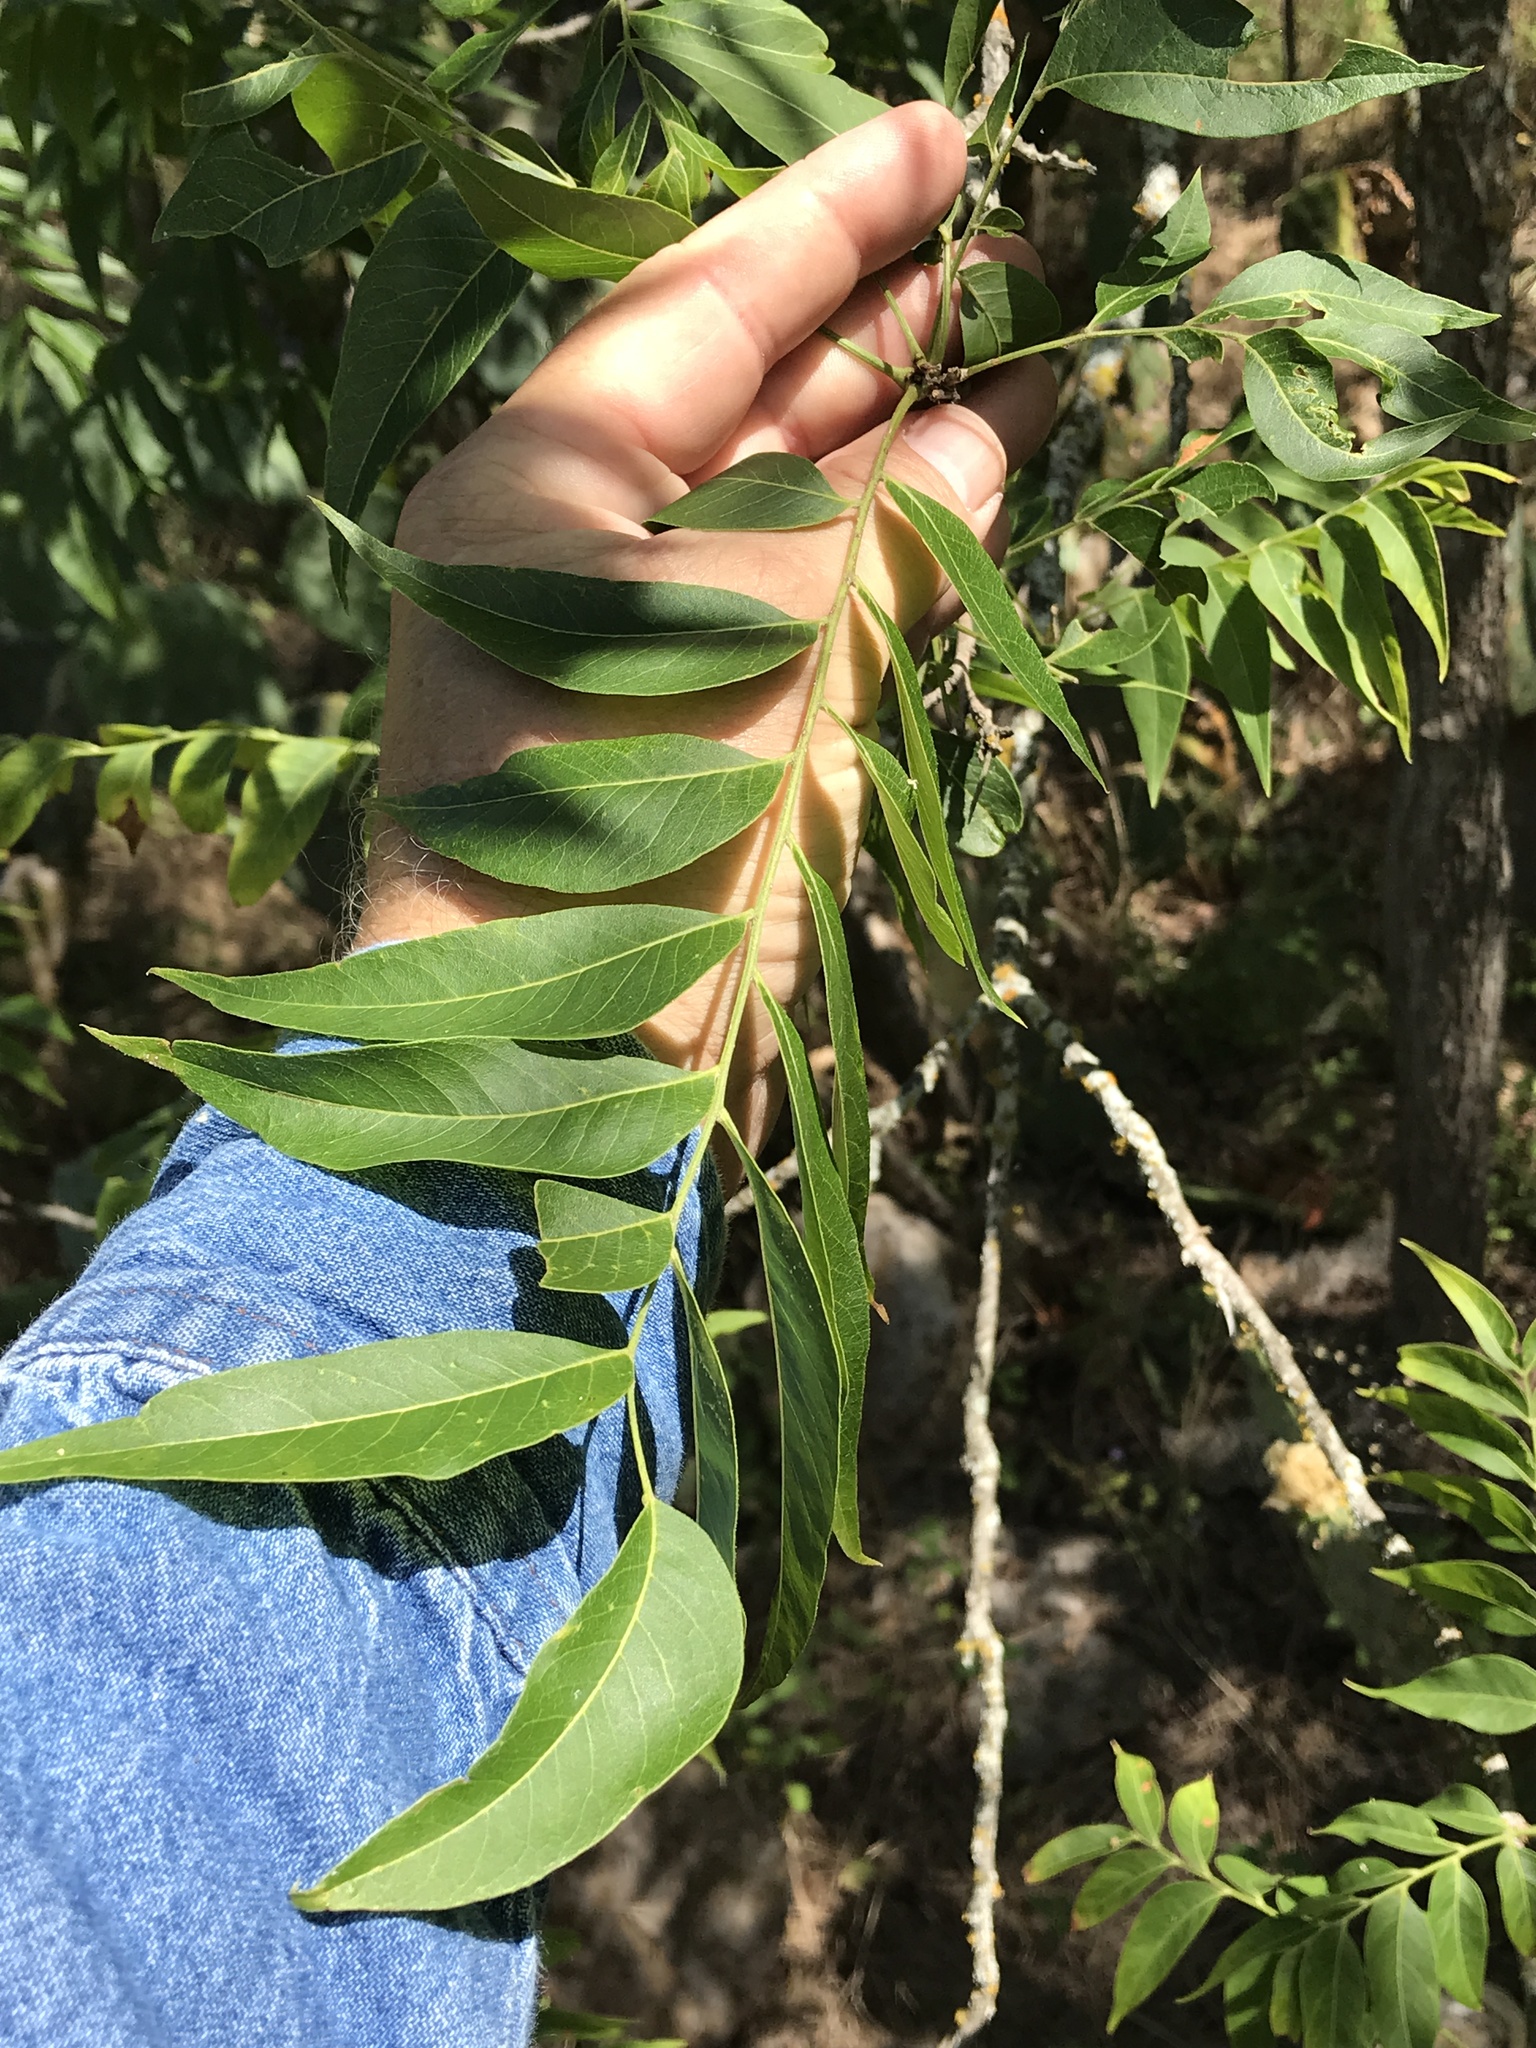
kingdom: Plantae
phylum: Tracheophyta
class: Magnoliopsida
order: Sapindales
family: Sapindaceae
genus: Sapindus
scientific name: Sapindus drummondii
